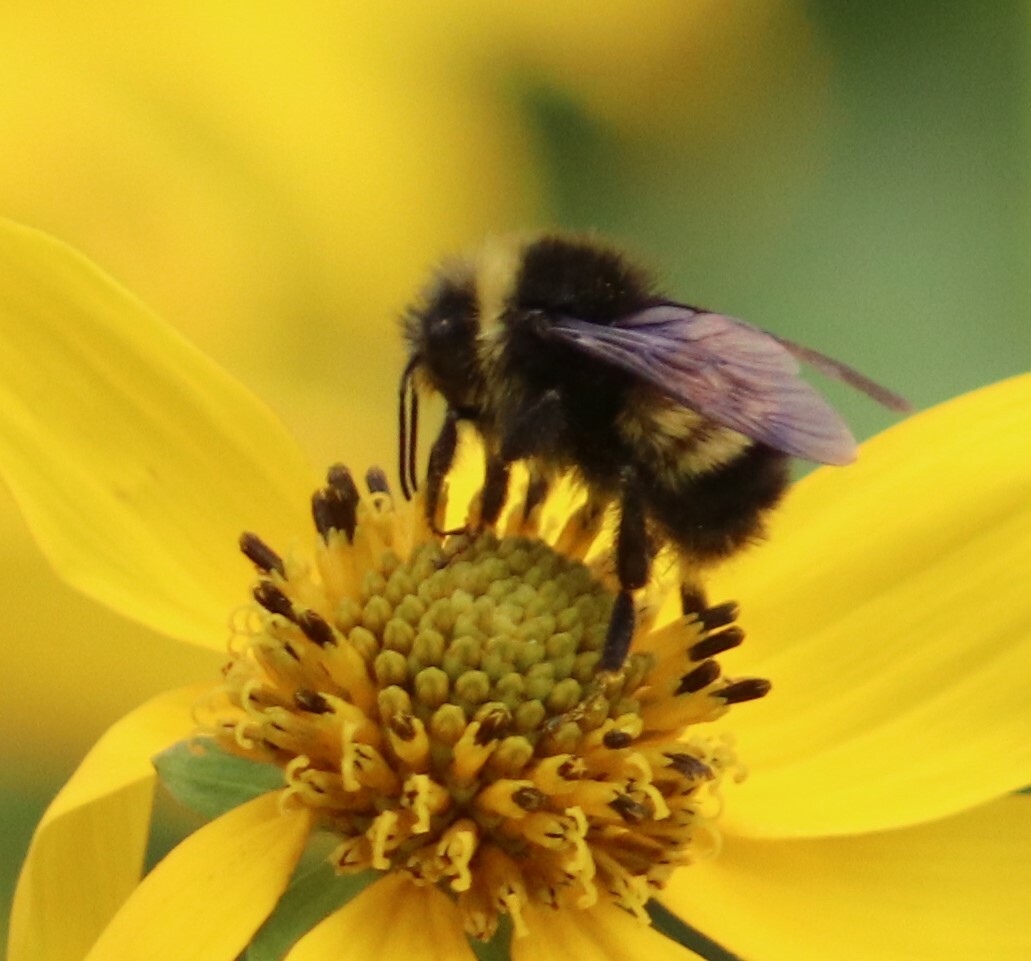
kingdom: Animalia
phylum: Arthropoda
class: Insecta
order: Hymenoptera
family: Apidae
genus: Bombus
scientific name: Bombus terricola
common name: Yellow-banded bumble bee
